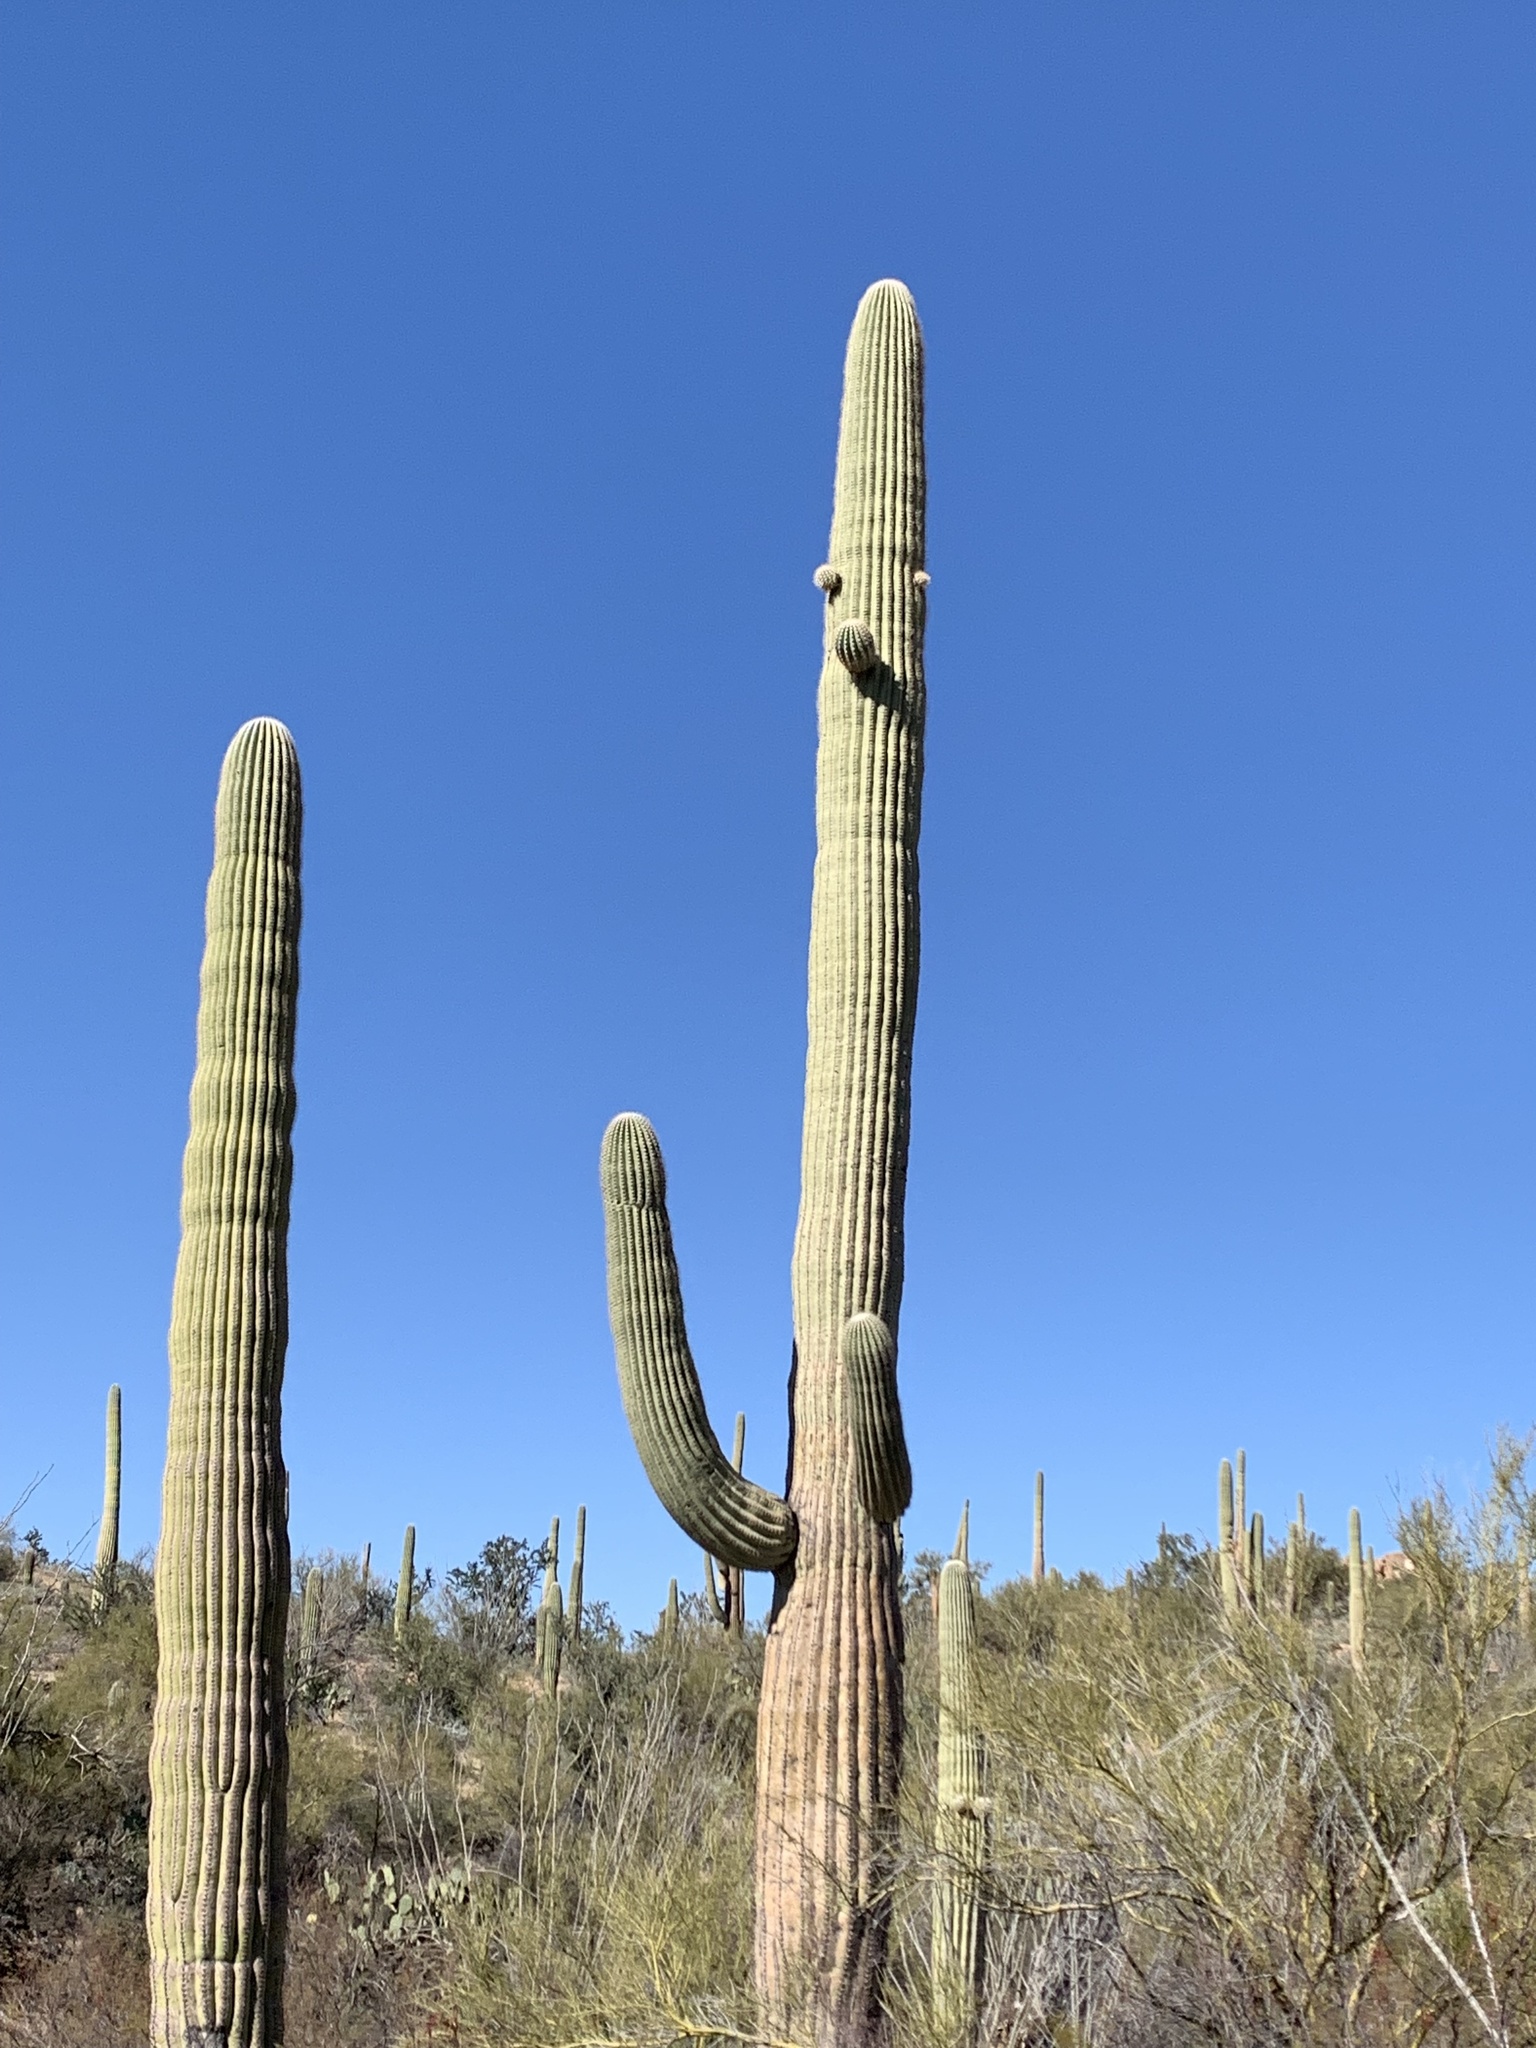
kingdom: Plantae
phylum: Tracheophyta
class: Magnoliopsida
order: Caryophyllales
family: Cactaceae
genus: Carnegiea
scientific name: Carnegiea gigantea
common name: Saguaro
